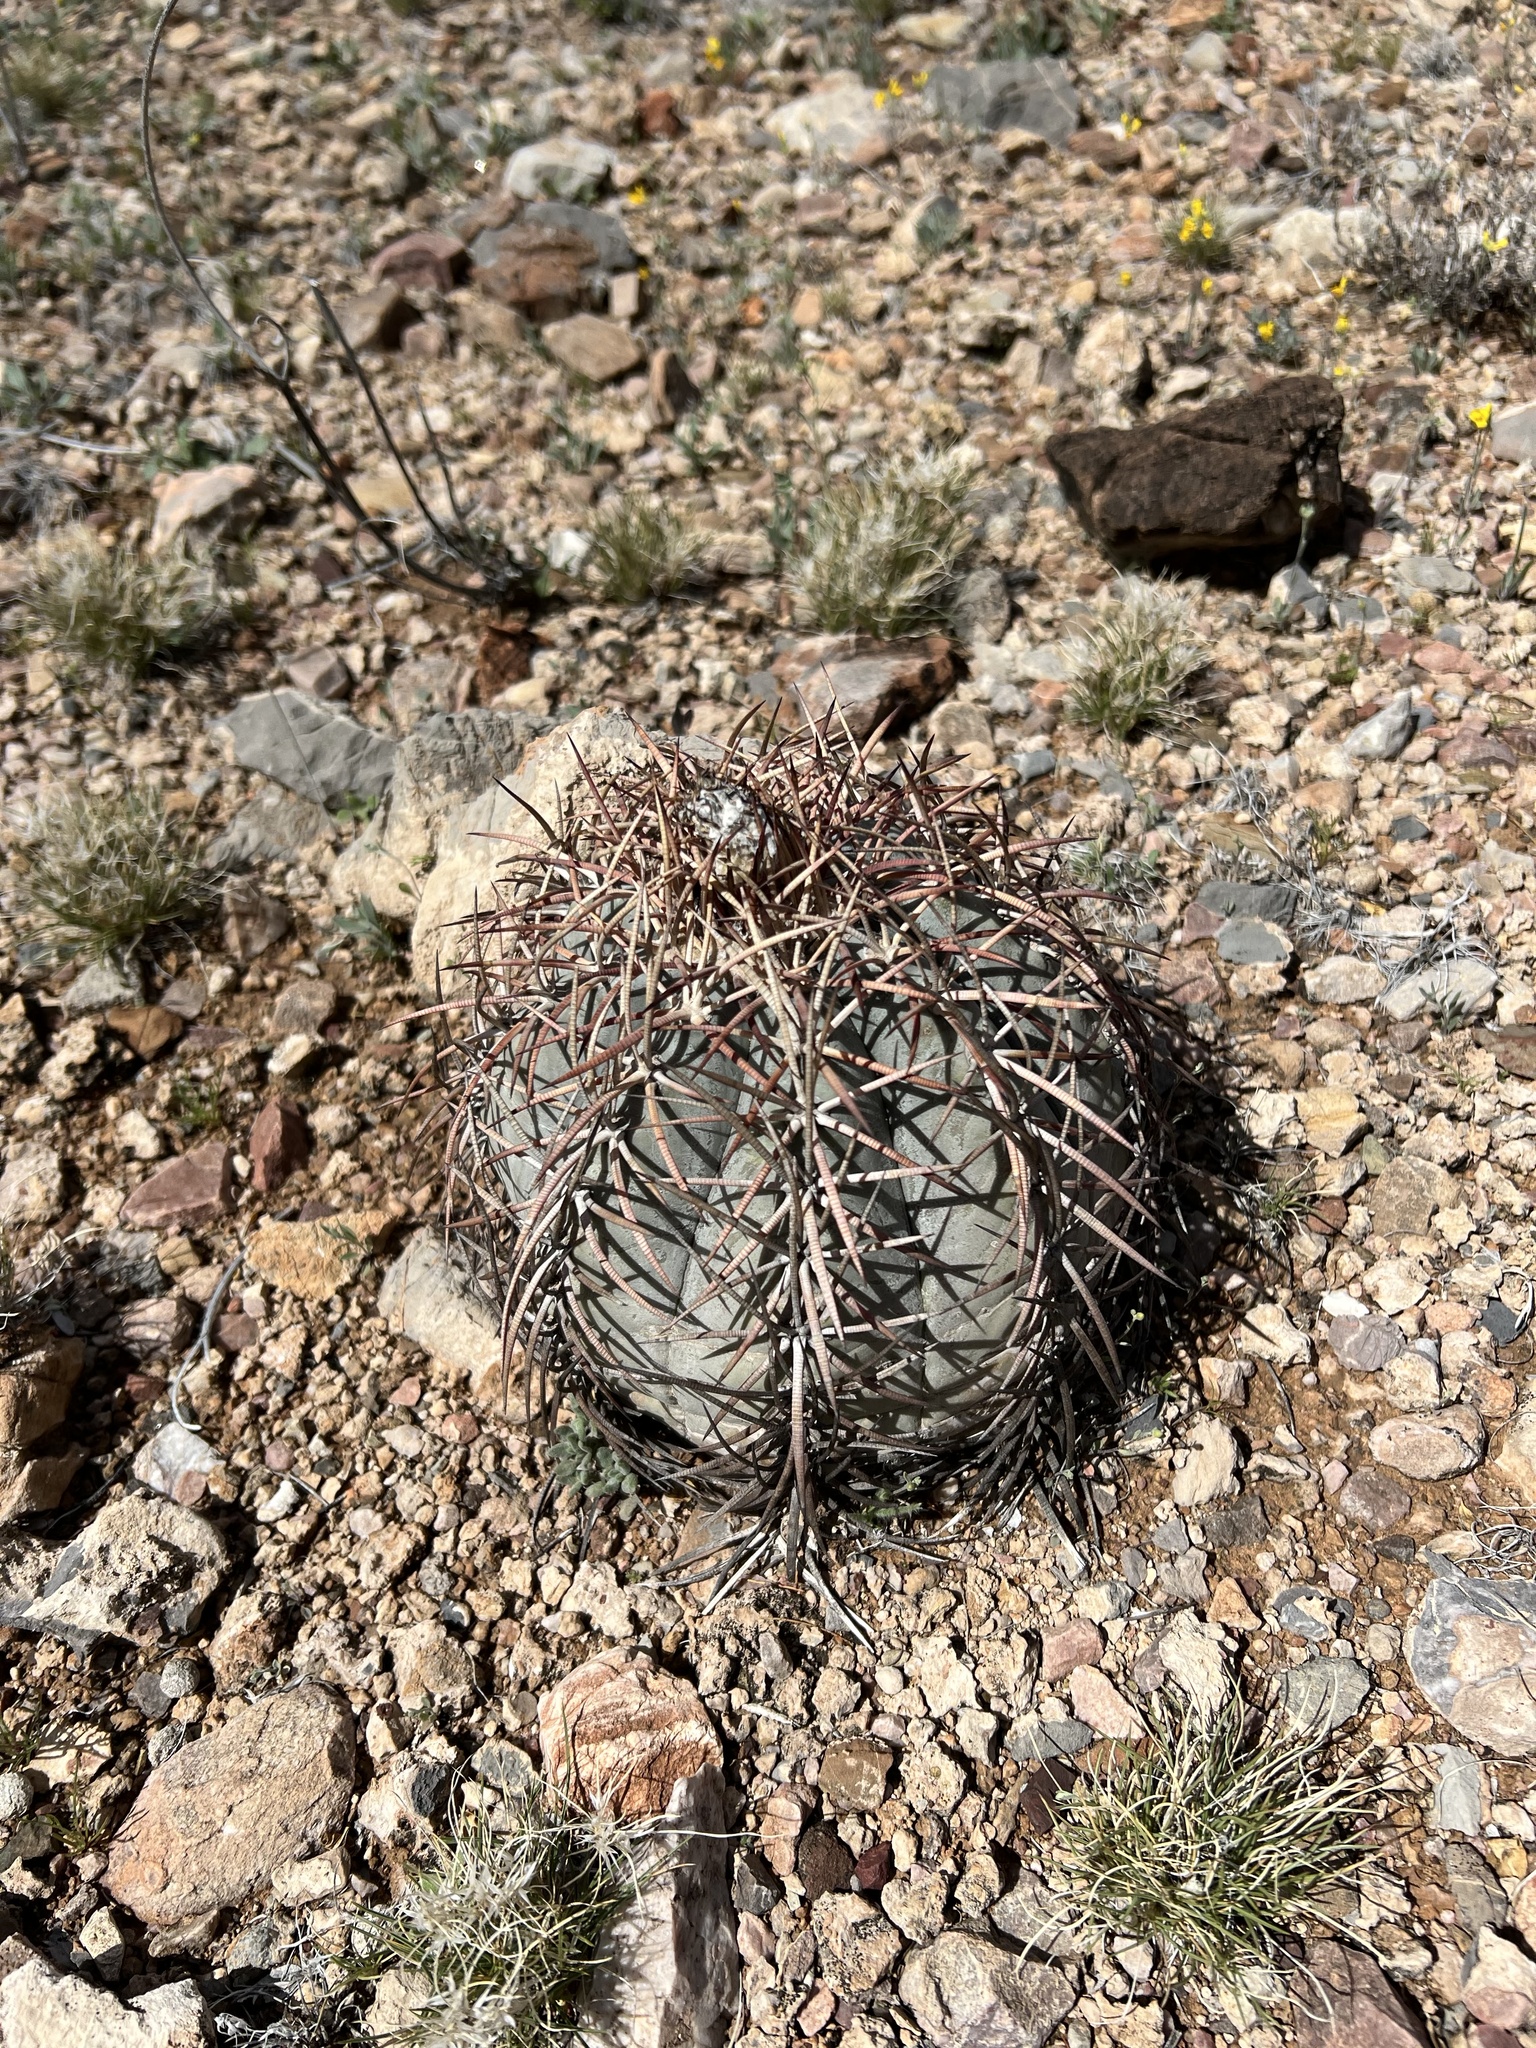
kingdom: Plantae
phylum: Tracheophyta
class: Magnoliopsida
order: Caryophyllales
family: Cactaceae
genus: Echinocactus
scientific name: Echinocactus horizonthalonius
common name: Devilshead
